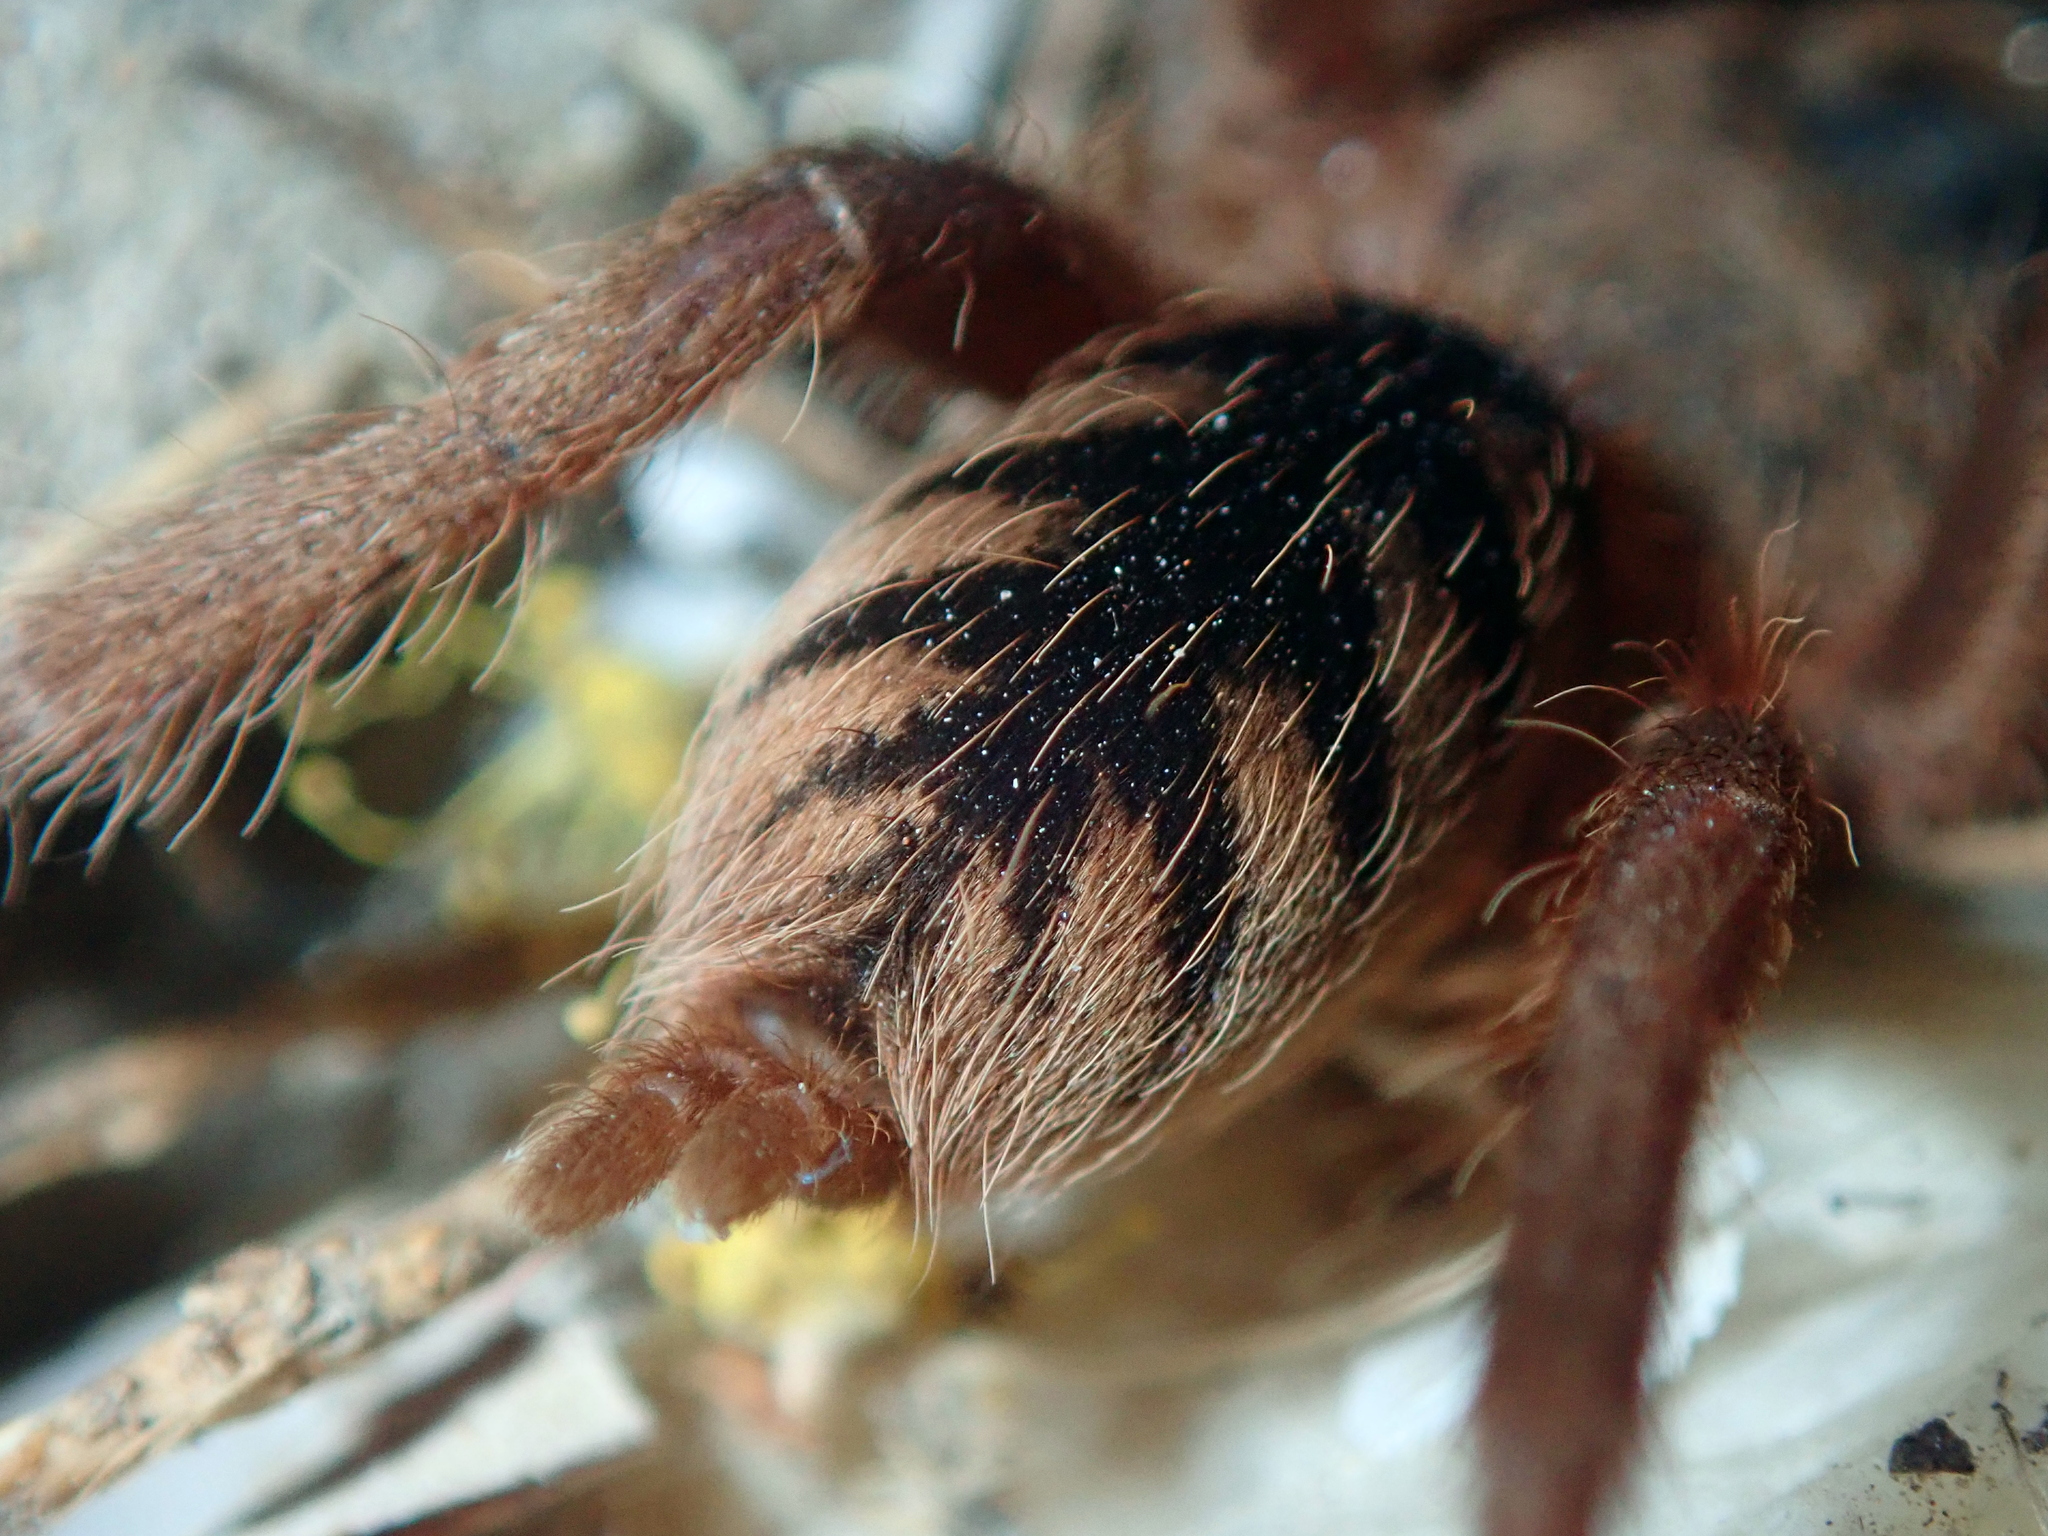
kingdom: Animalia
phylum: Arthropoda
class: Arachnida
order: Araneae
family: Theraphosidae
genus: Guyruita
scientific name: Guyruita cerrado
